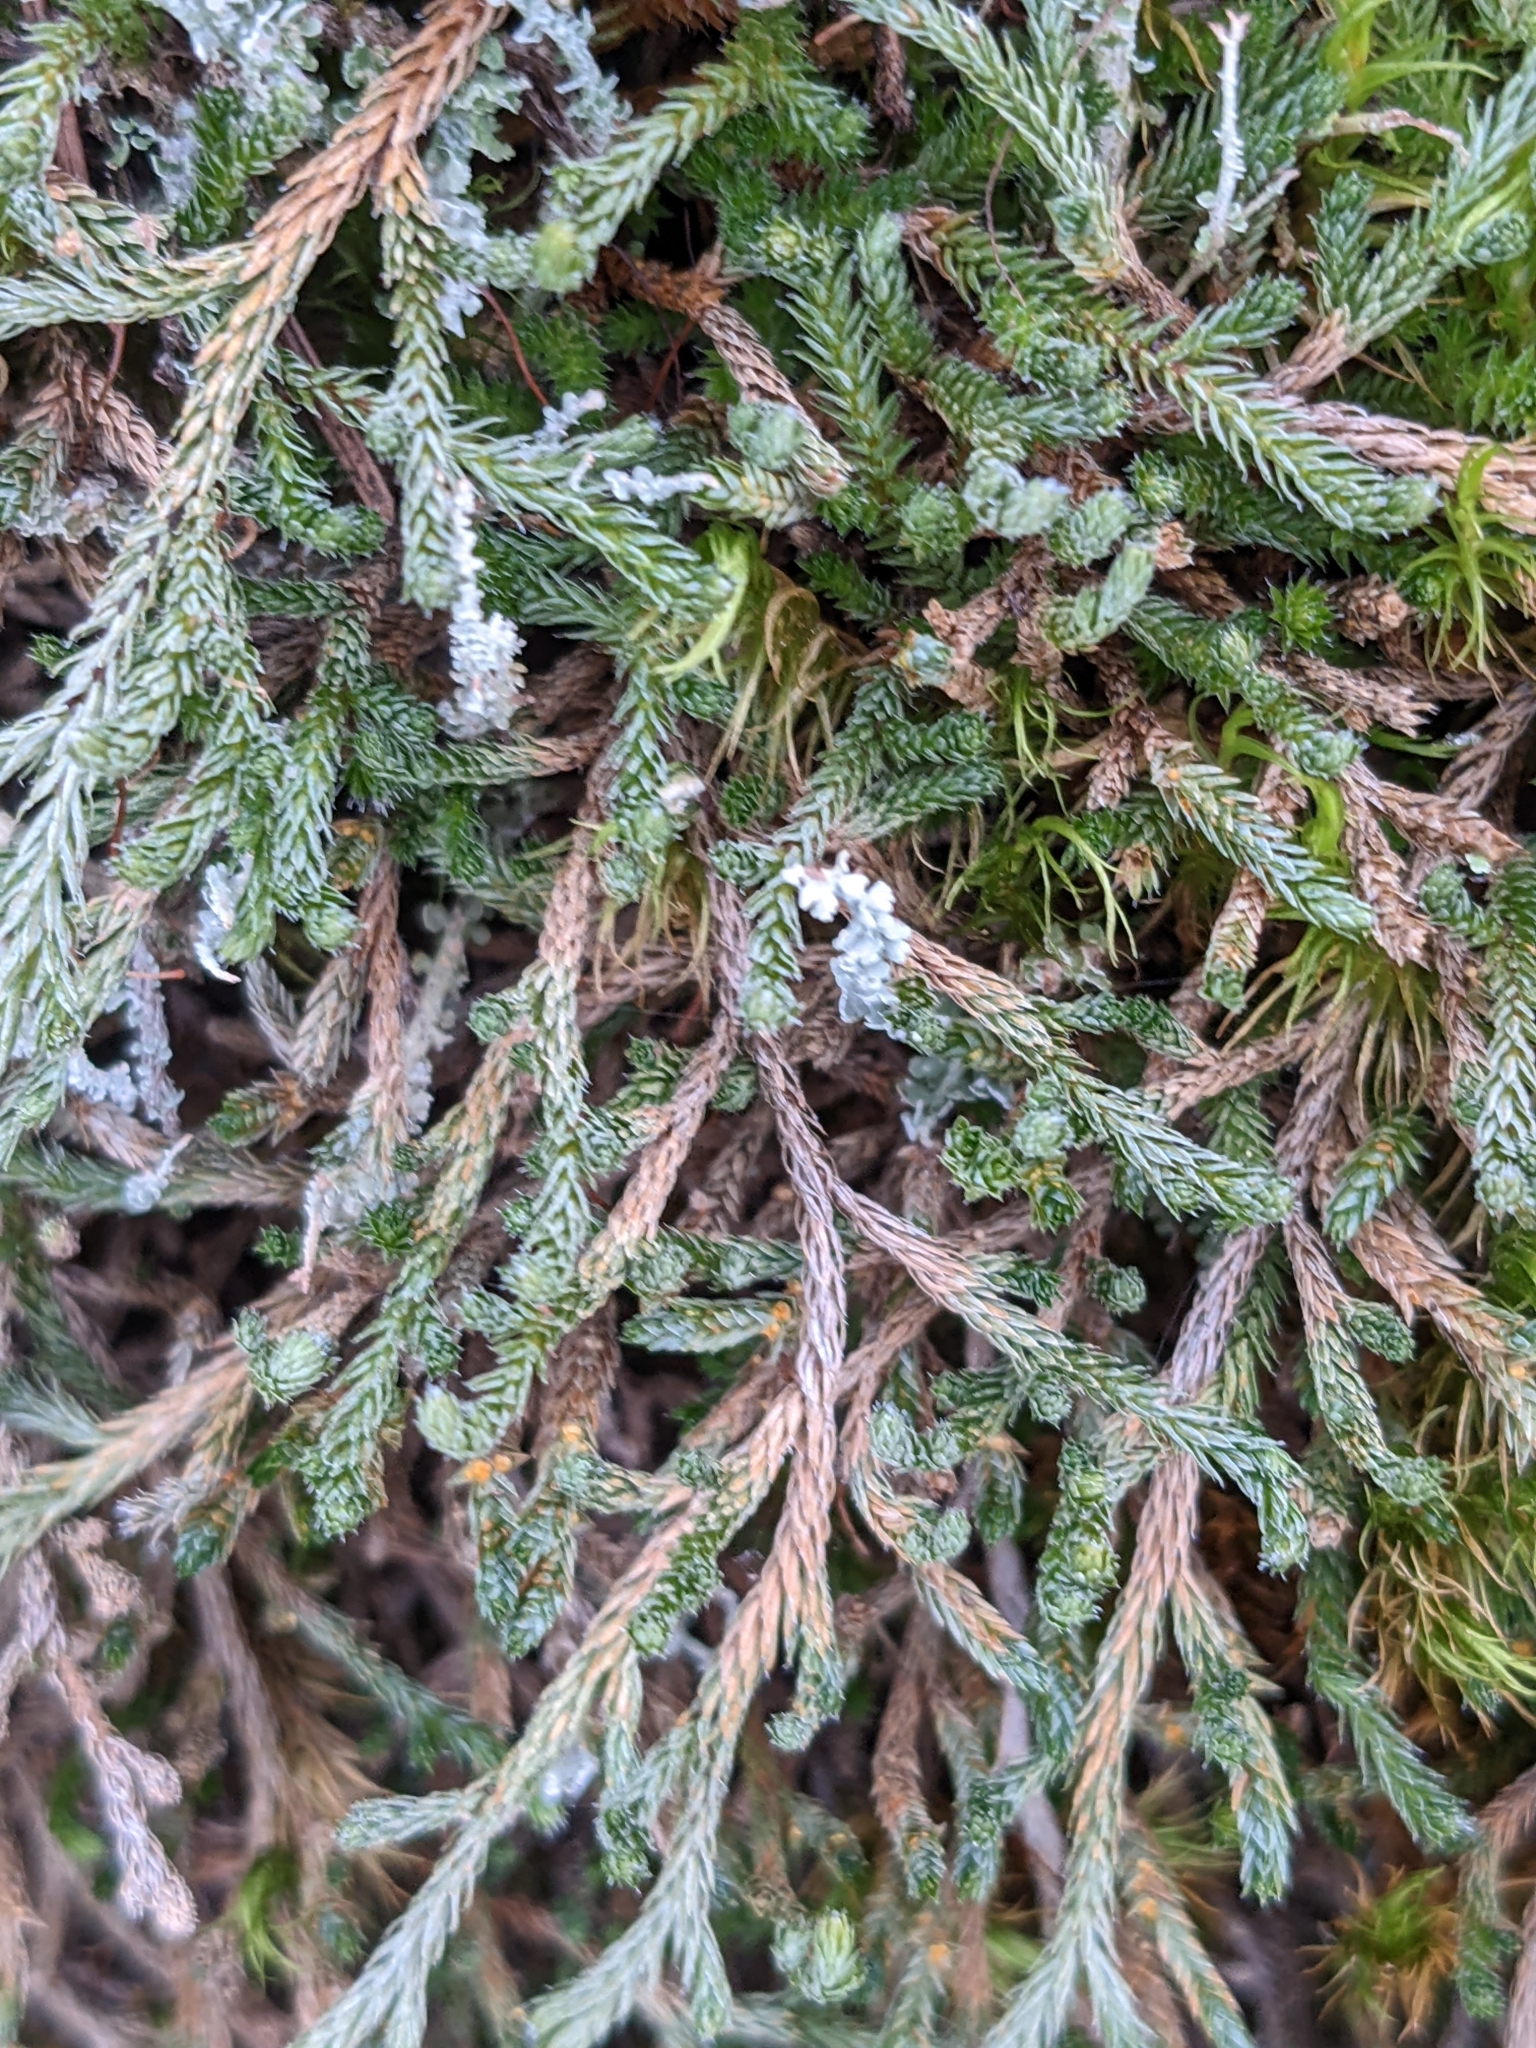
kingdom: Plantae
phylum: Tracheophyta
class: Lycopodiopsida
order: Selaginellales
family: Selaginellaceae
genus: Selaginella
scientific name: Selaginella wallacei
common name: Wallace's selaginella
